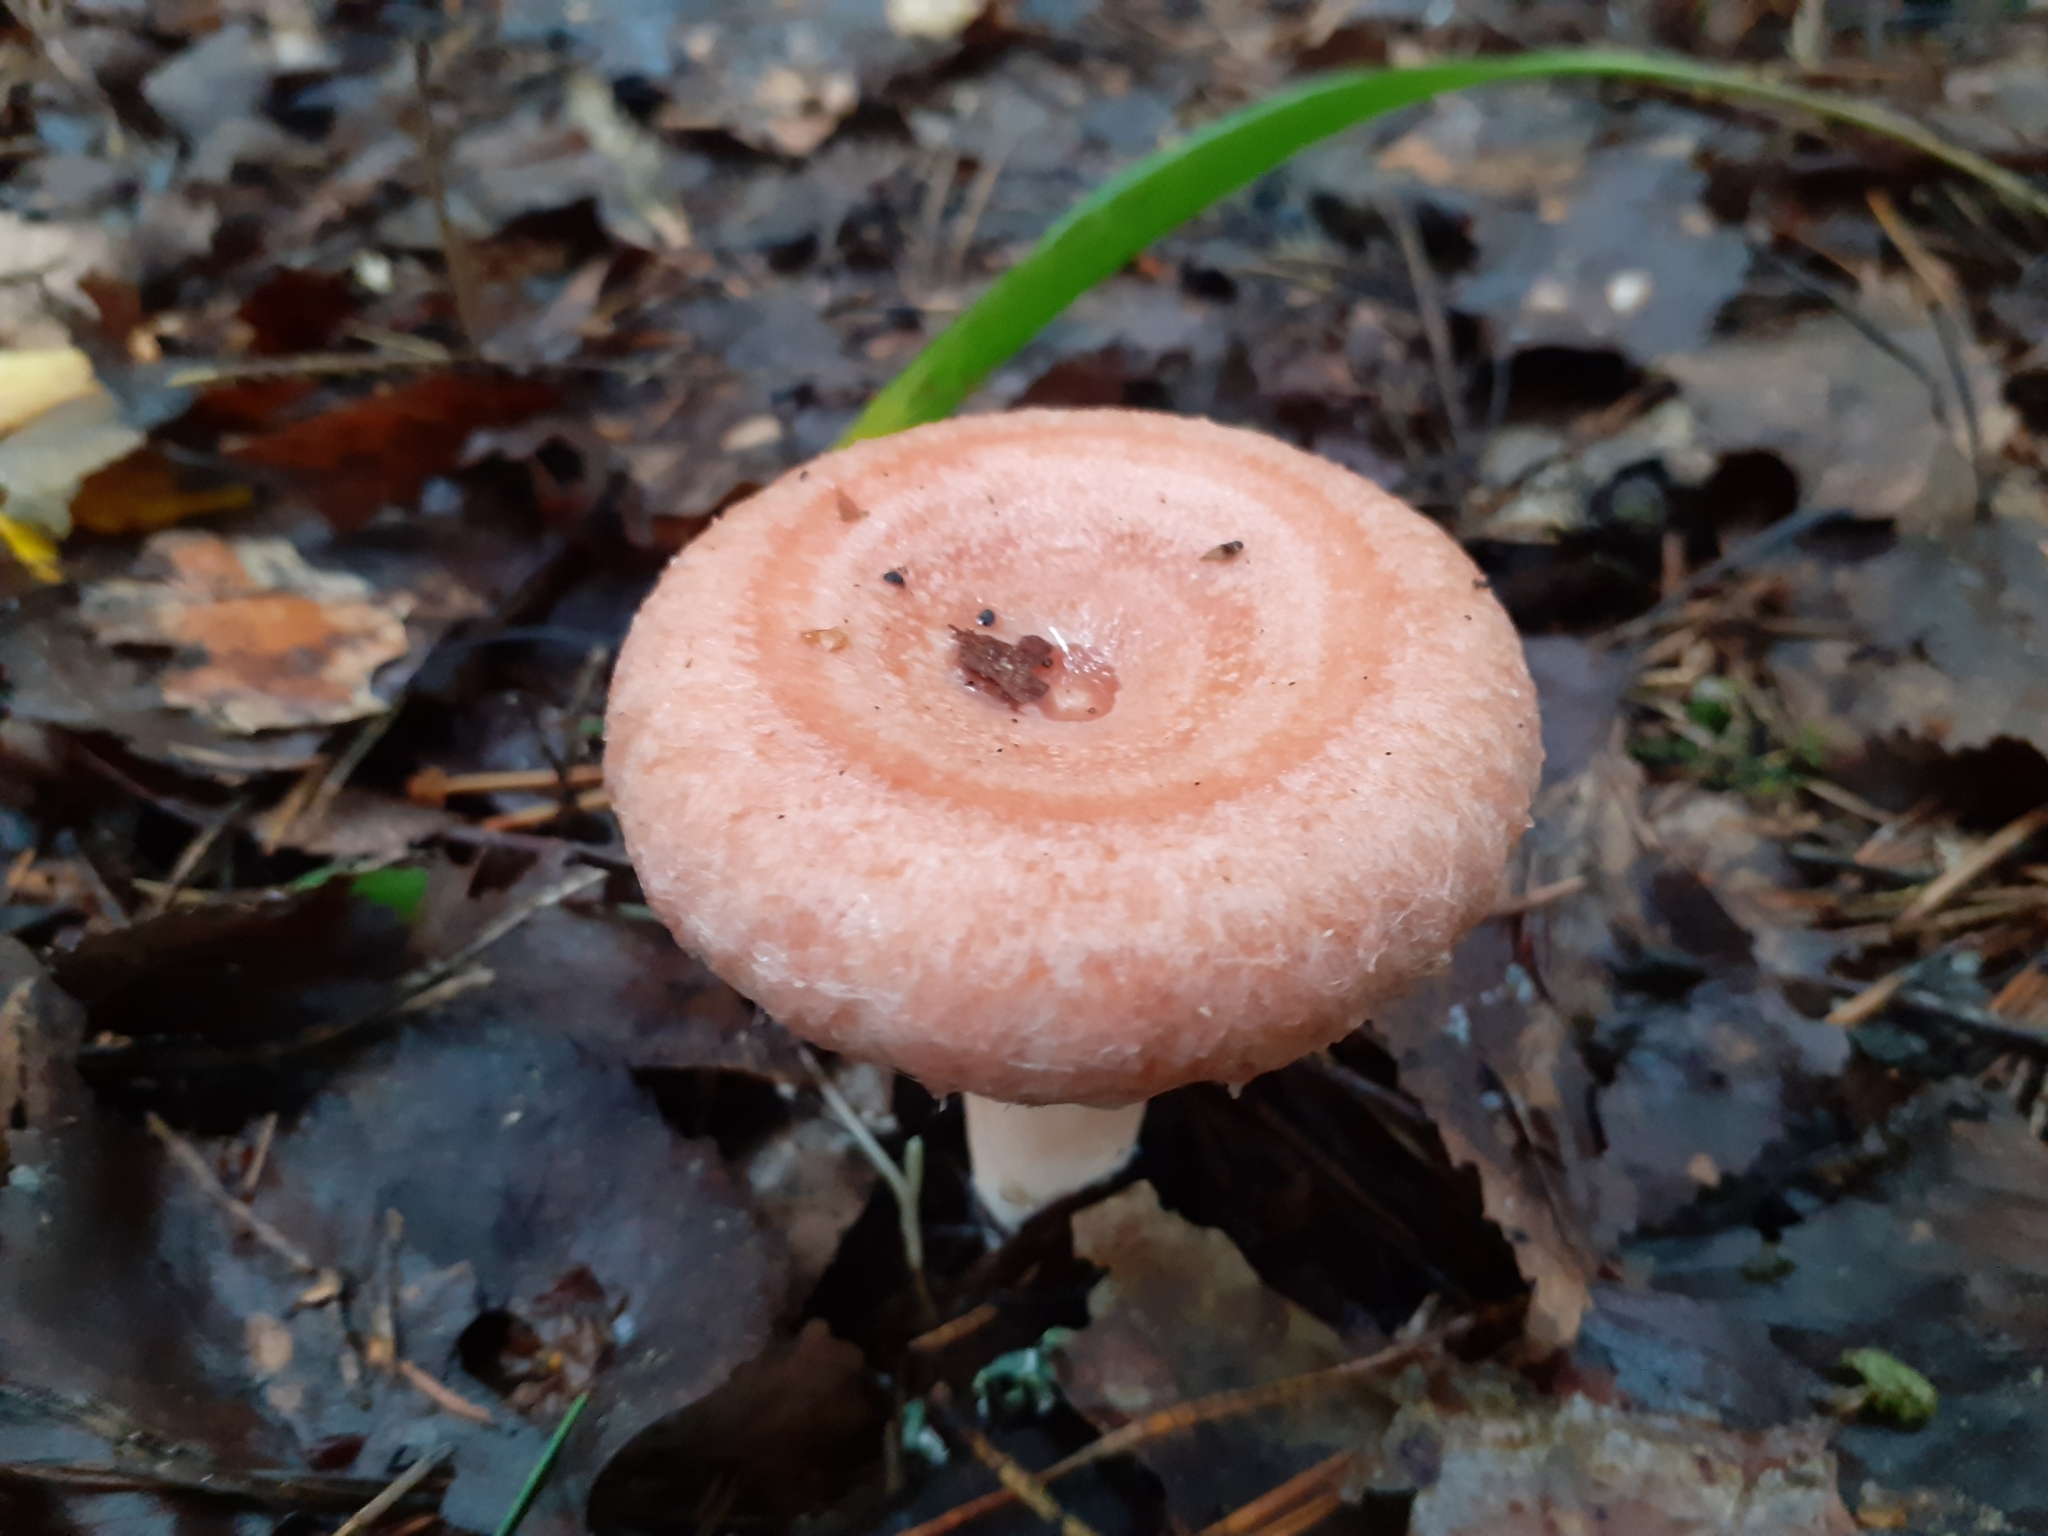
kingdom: Fungi
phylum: Basidiomycota
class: Agaricomycetes
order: Russulales
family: Russulaceae
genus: Lactarius
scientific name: Lactarius torminosus
